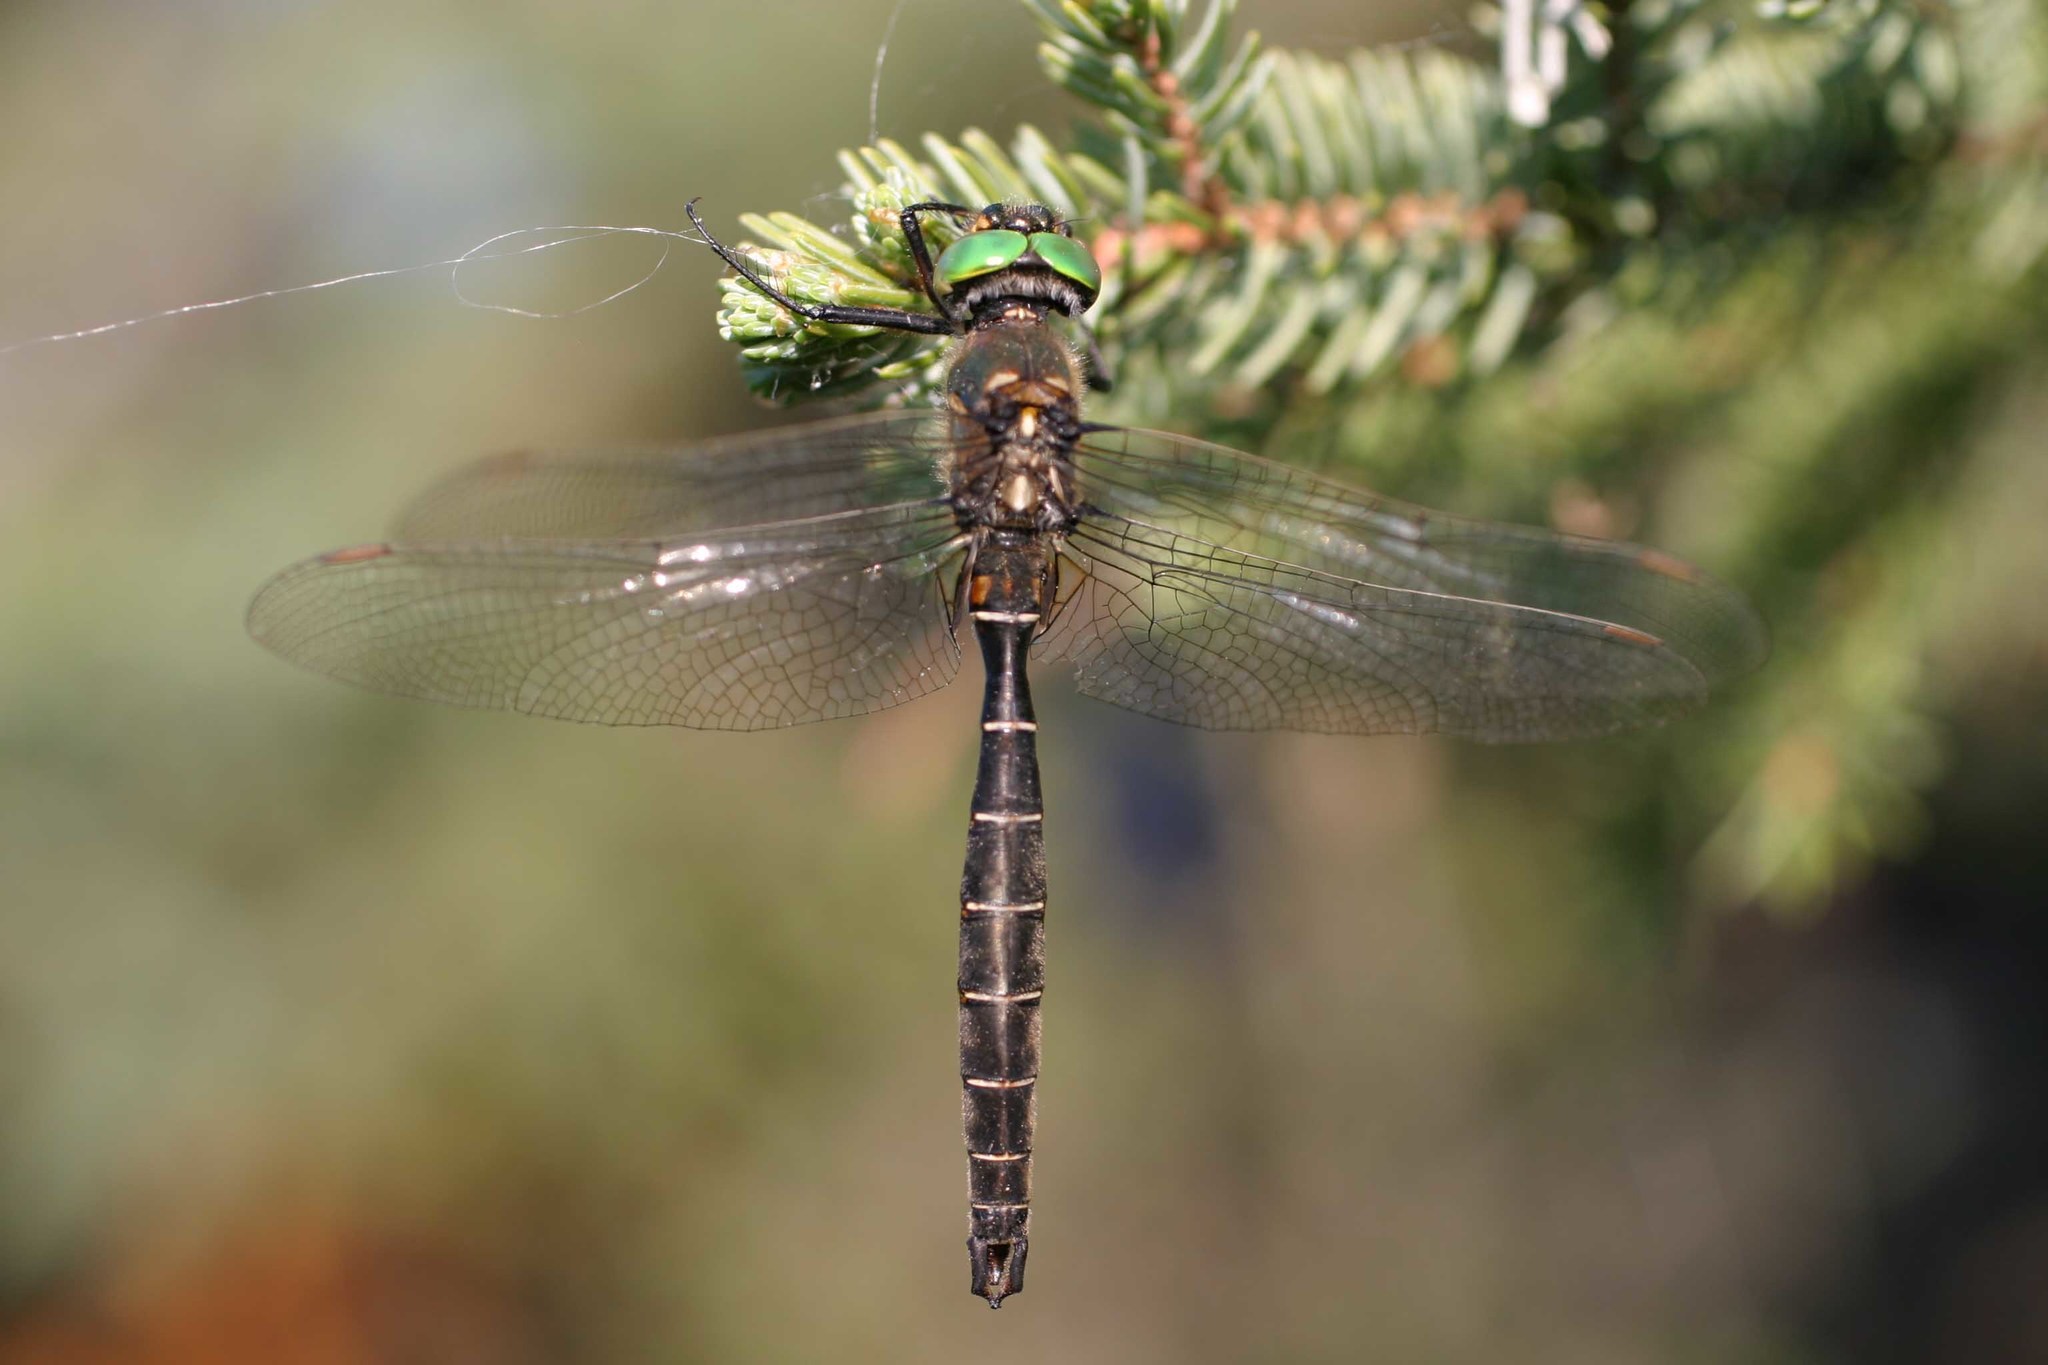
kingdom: Animalia
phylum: Arthropoda
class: Insecta
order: Odonata
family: Corduliidae
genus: Somatochlora
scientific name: Somatochlora hudsonica
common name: Hudsonian emerald
